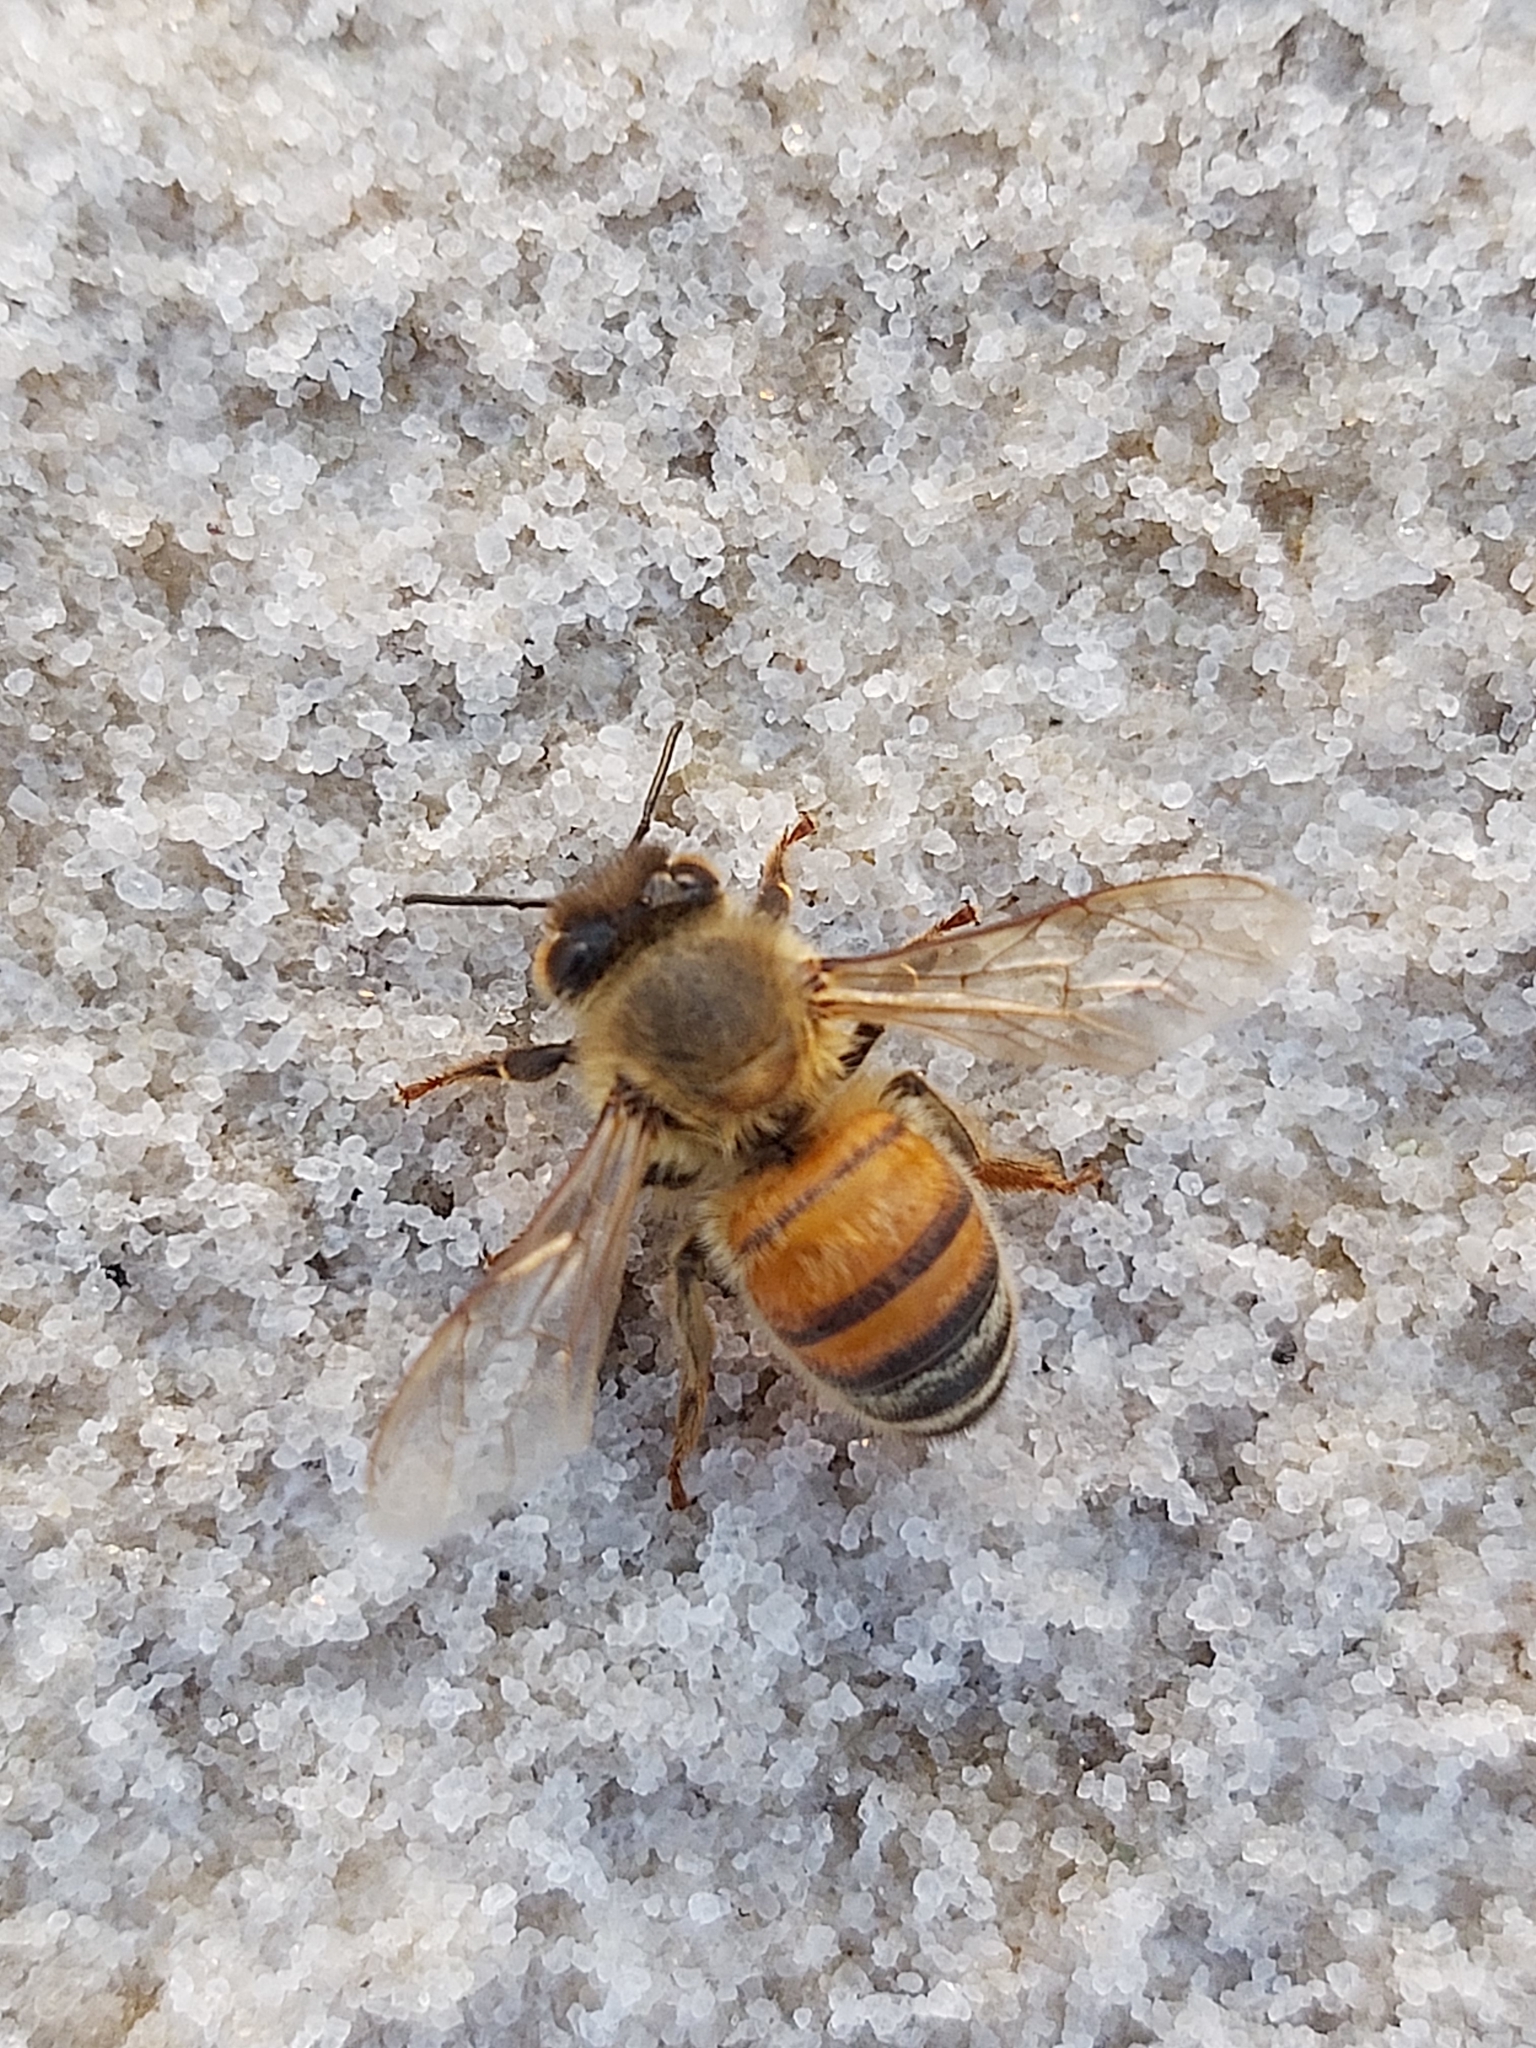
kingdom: Animalia
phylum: Arthropoda
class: Insecta
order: Hymenoptera
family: Apidae
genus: Apis
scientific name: Apis mellifera
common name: Honey bee
